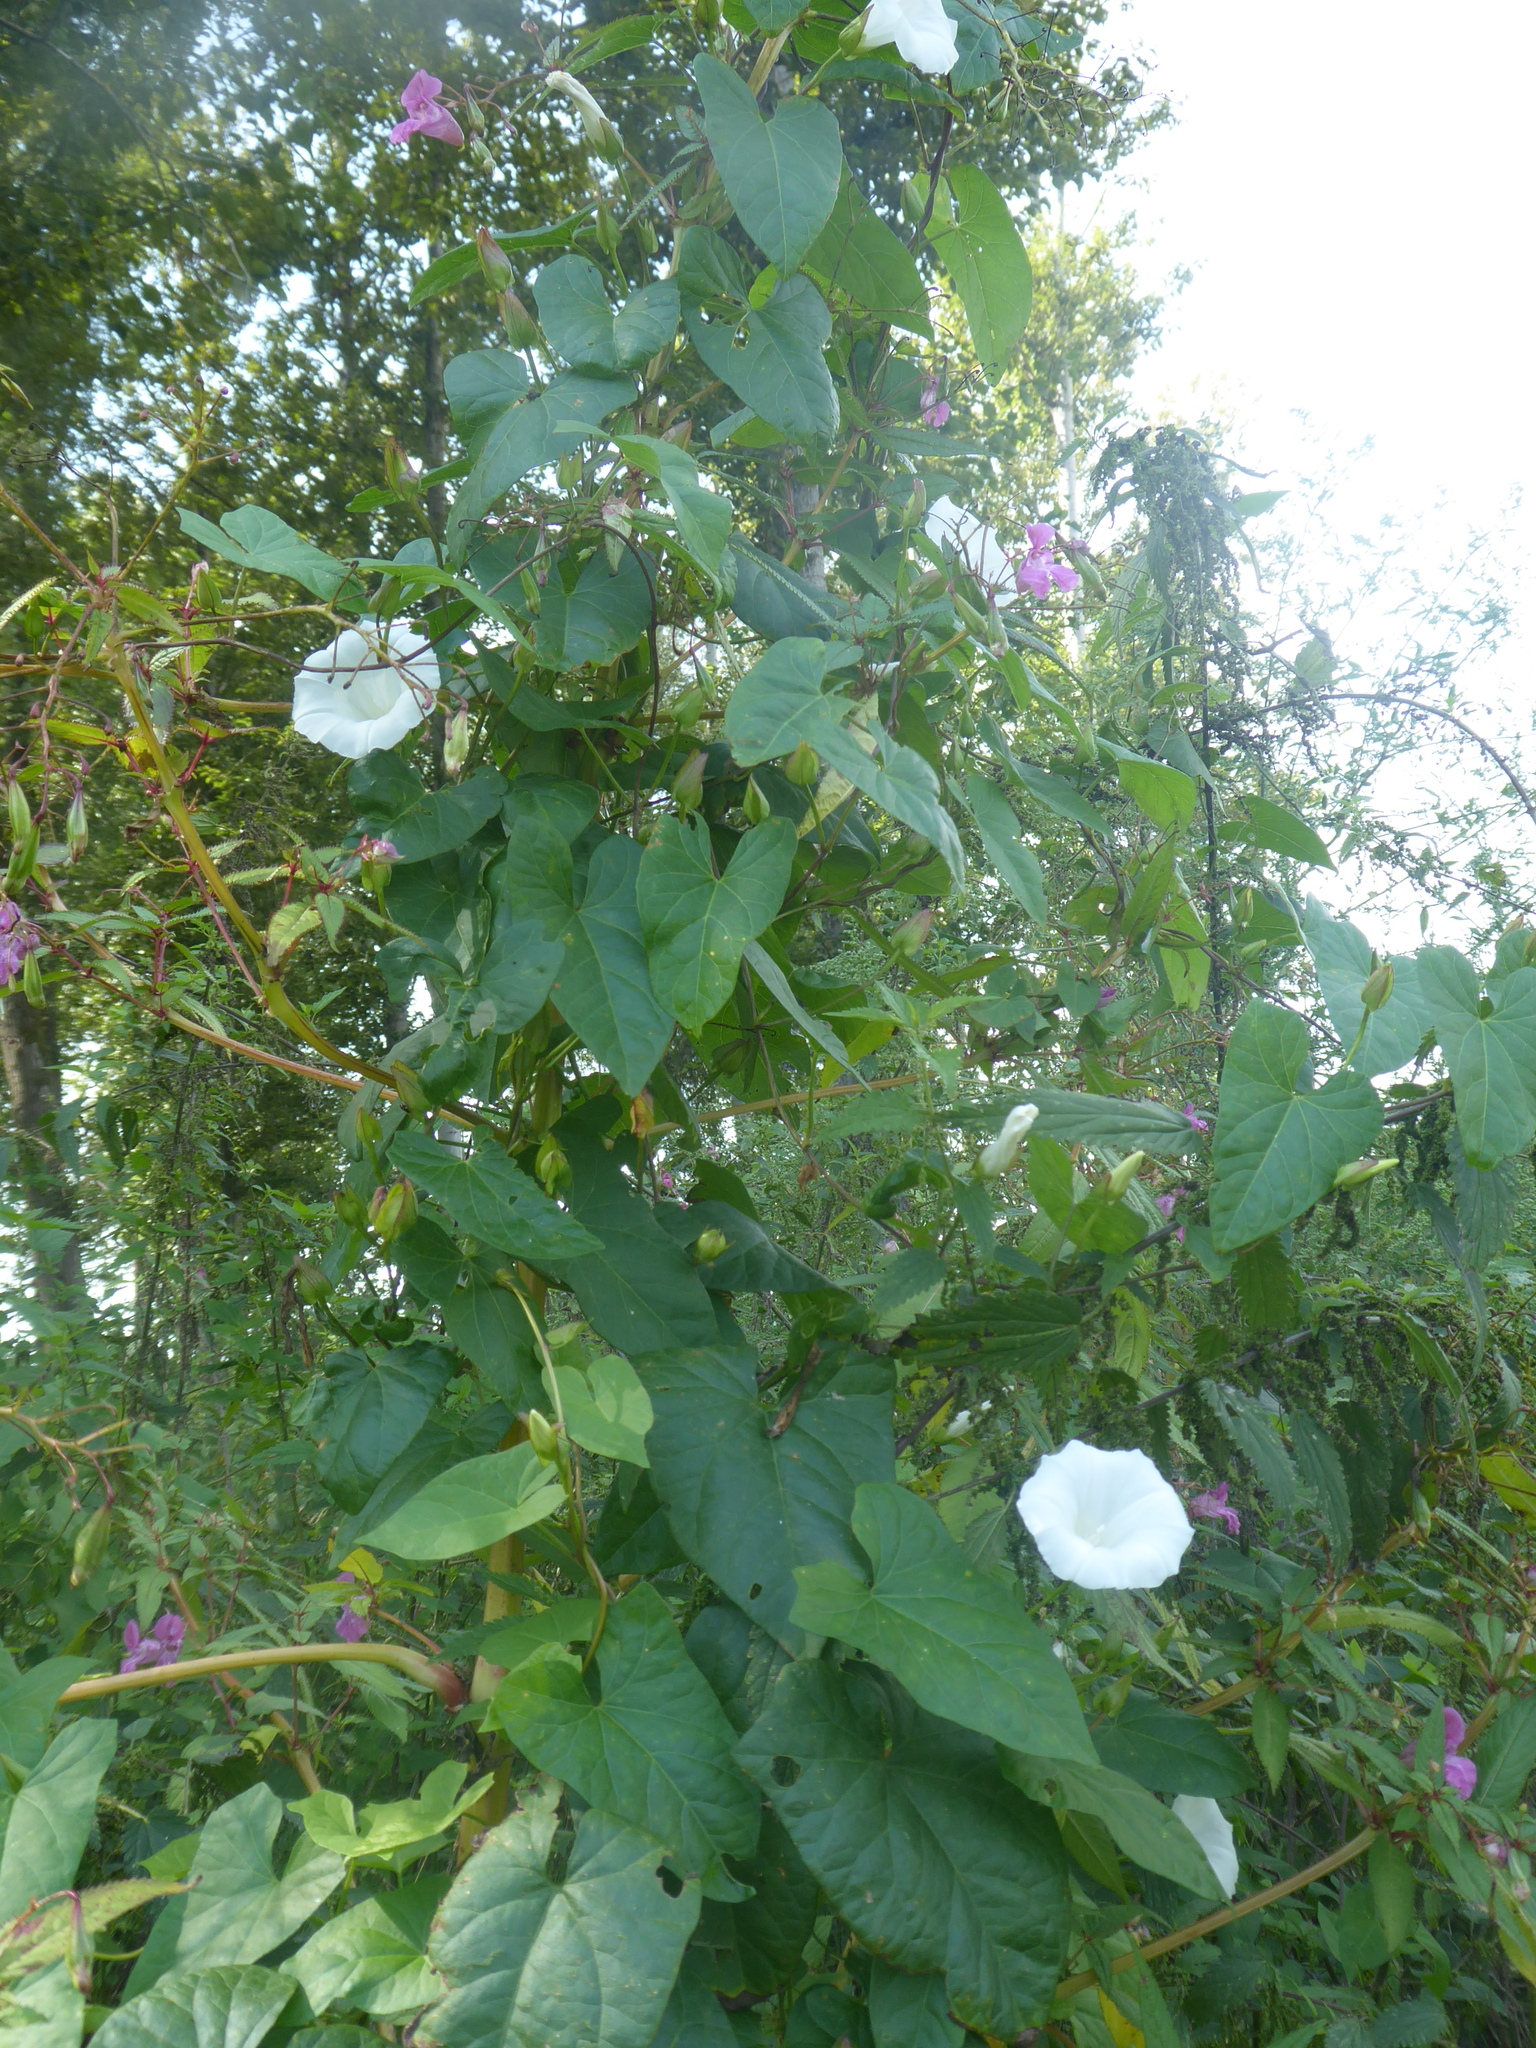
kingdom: Plantae
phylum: Tracheophyta
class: Magnoliopsida
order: Solanales
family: Convolvulaceae
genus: Calystegia
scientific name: Calystegia sepium
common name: Hedge bindweed
